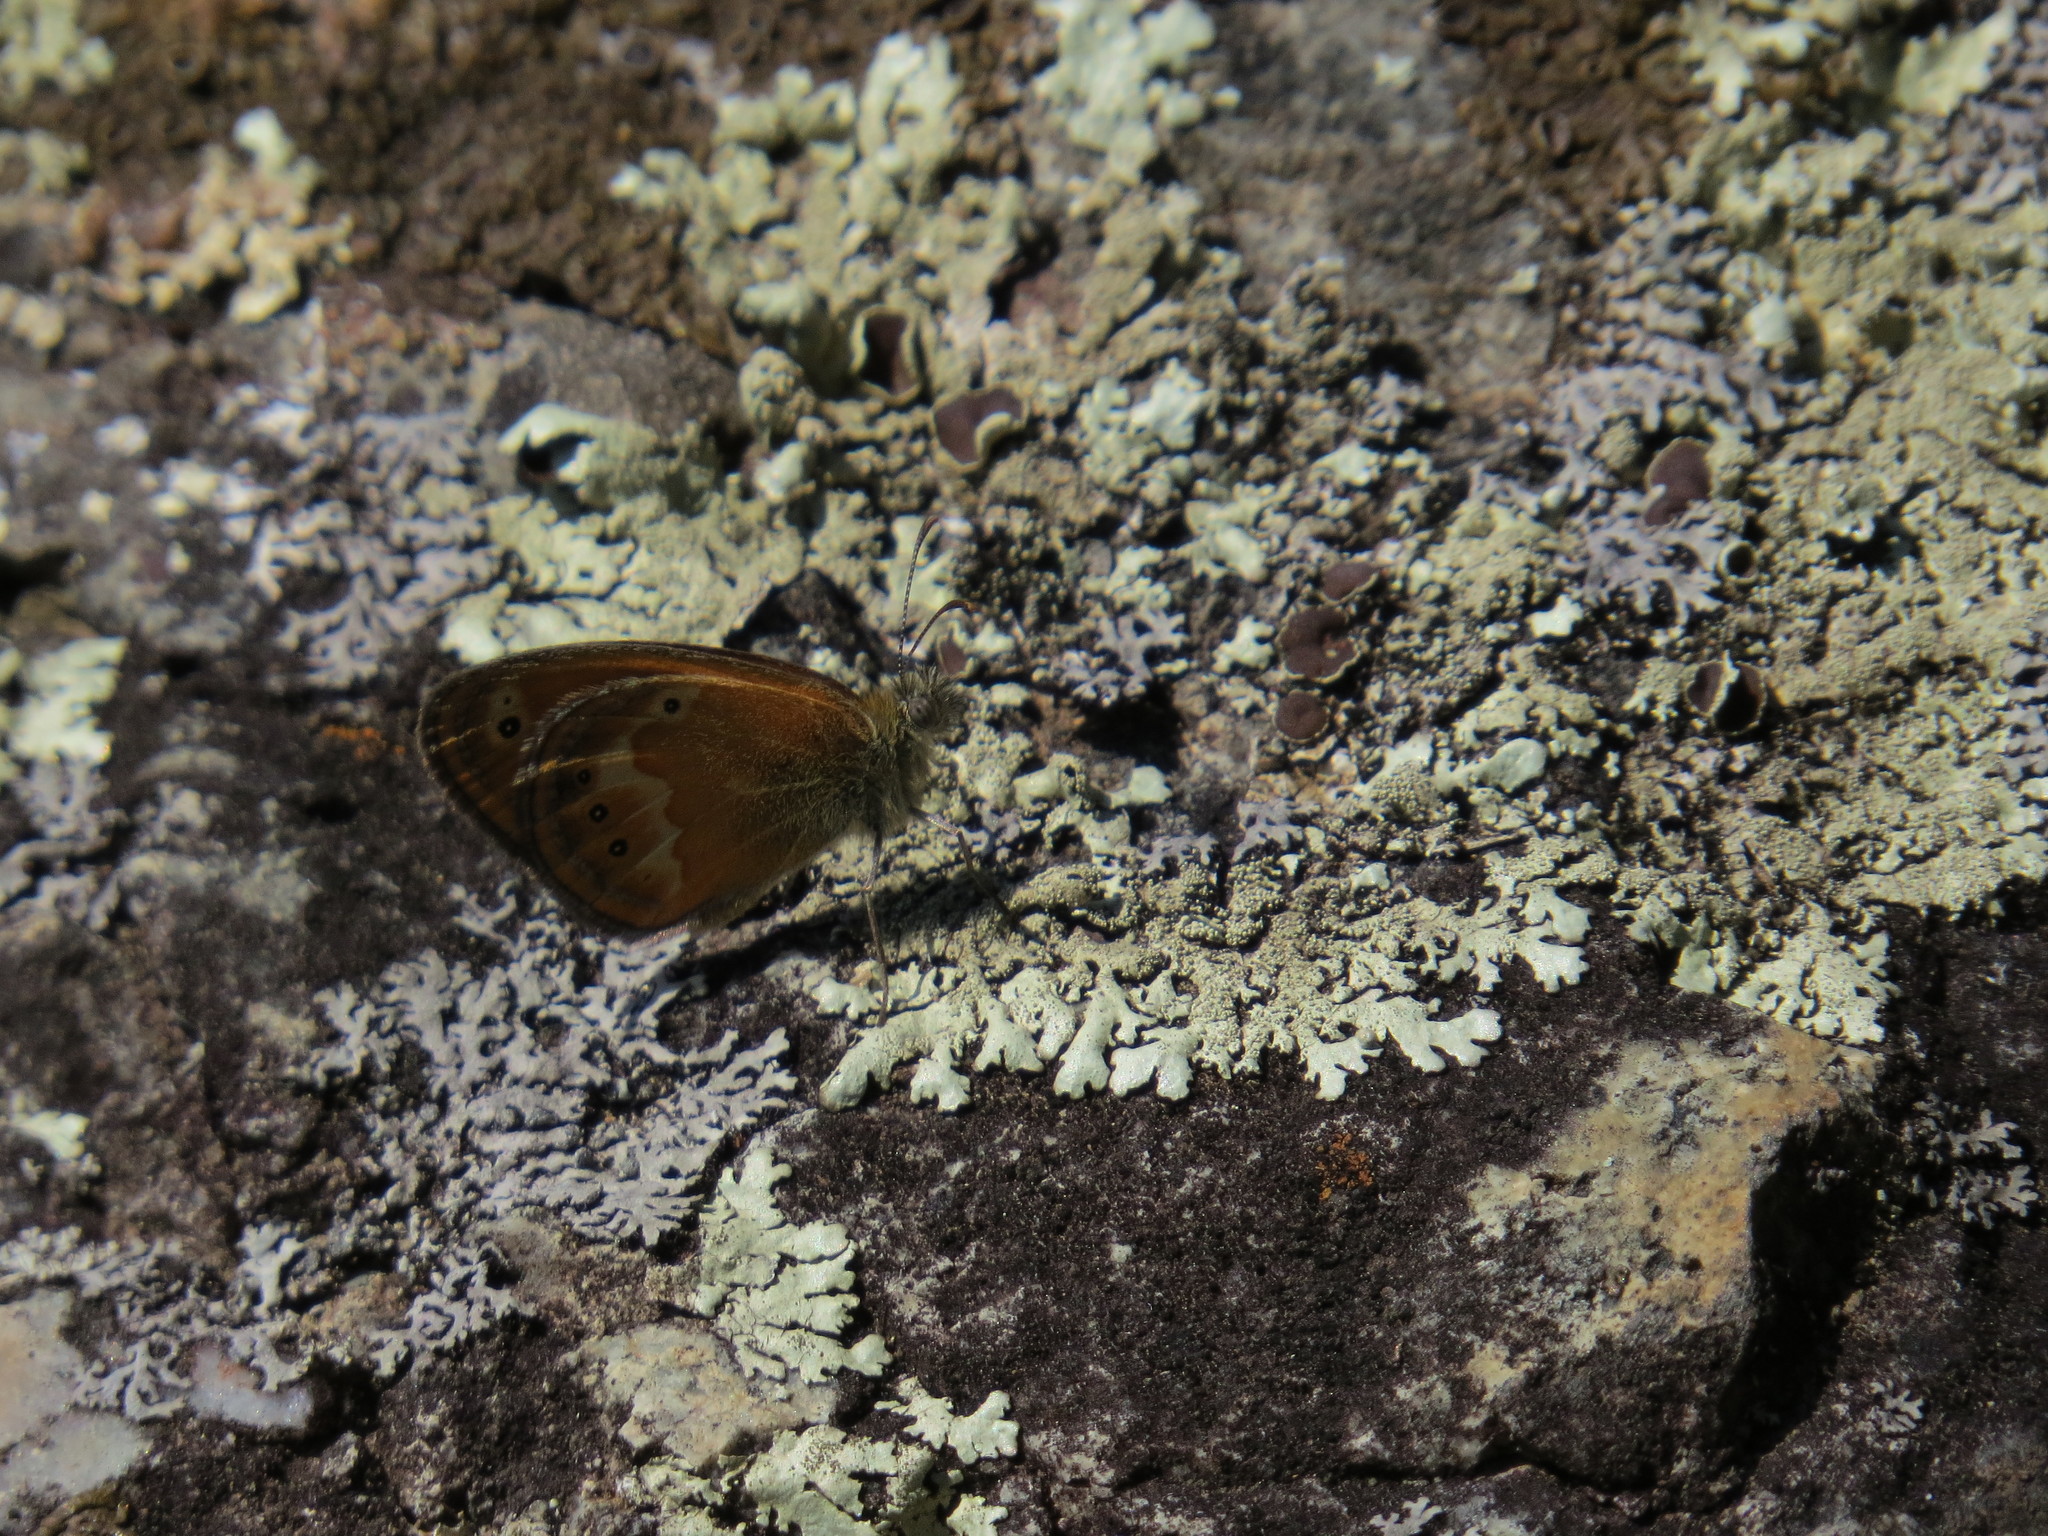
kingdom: Animalia
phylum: Arthropoda
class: Insecta
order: Lepidoptera
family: Nymphalidae
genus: Coenonympha
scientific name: Coenonympha corinna
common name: Corsican heath
